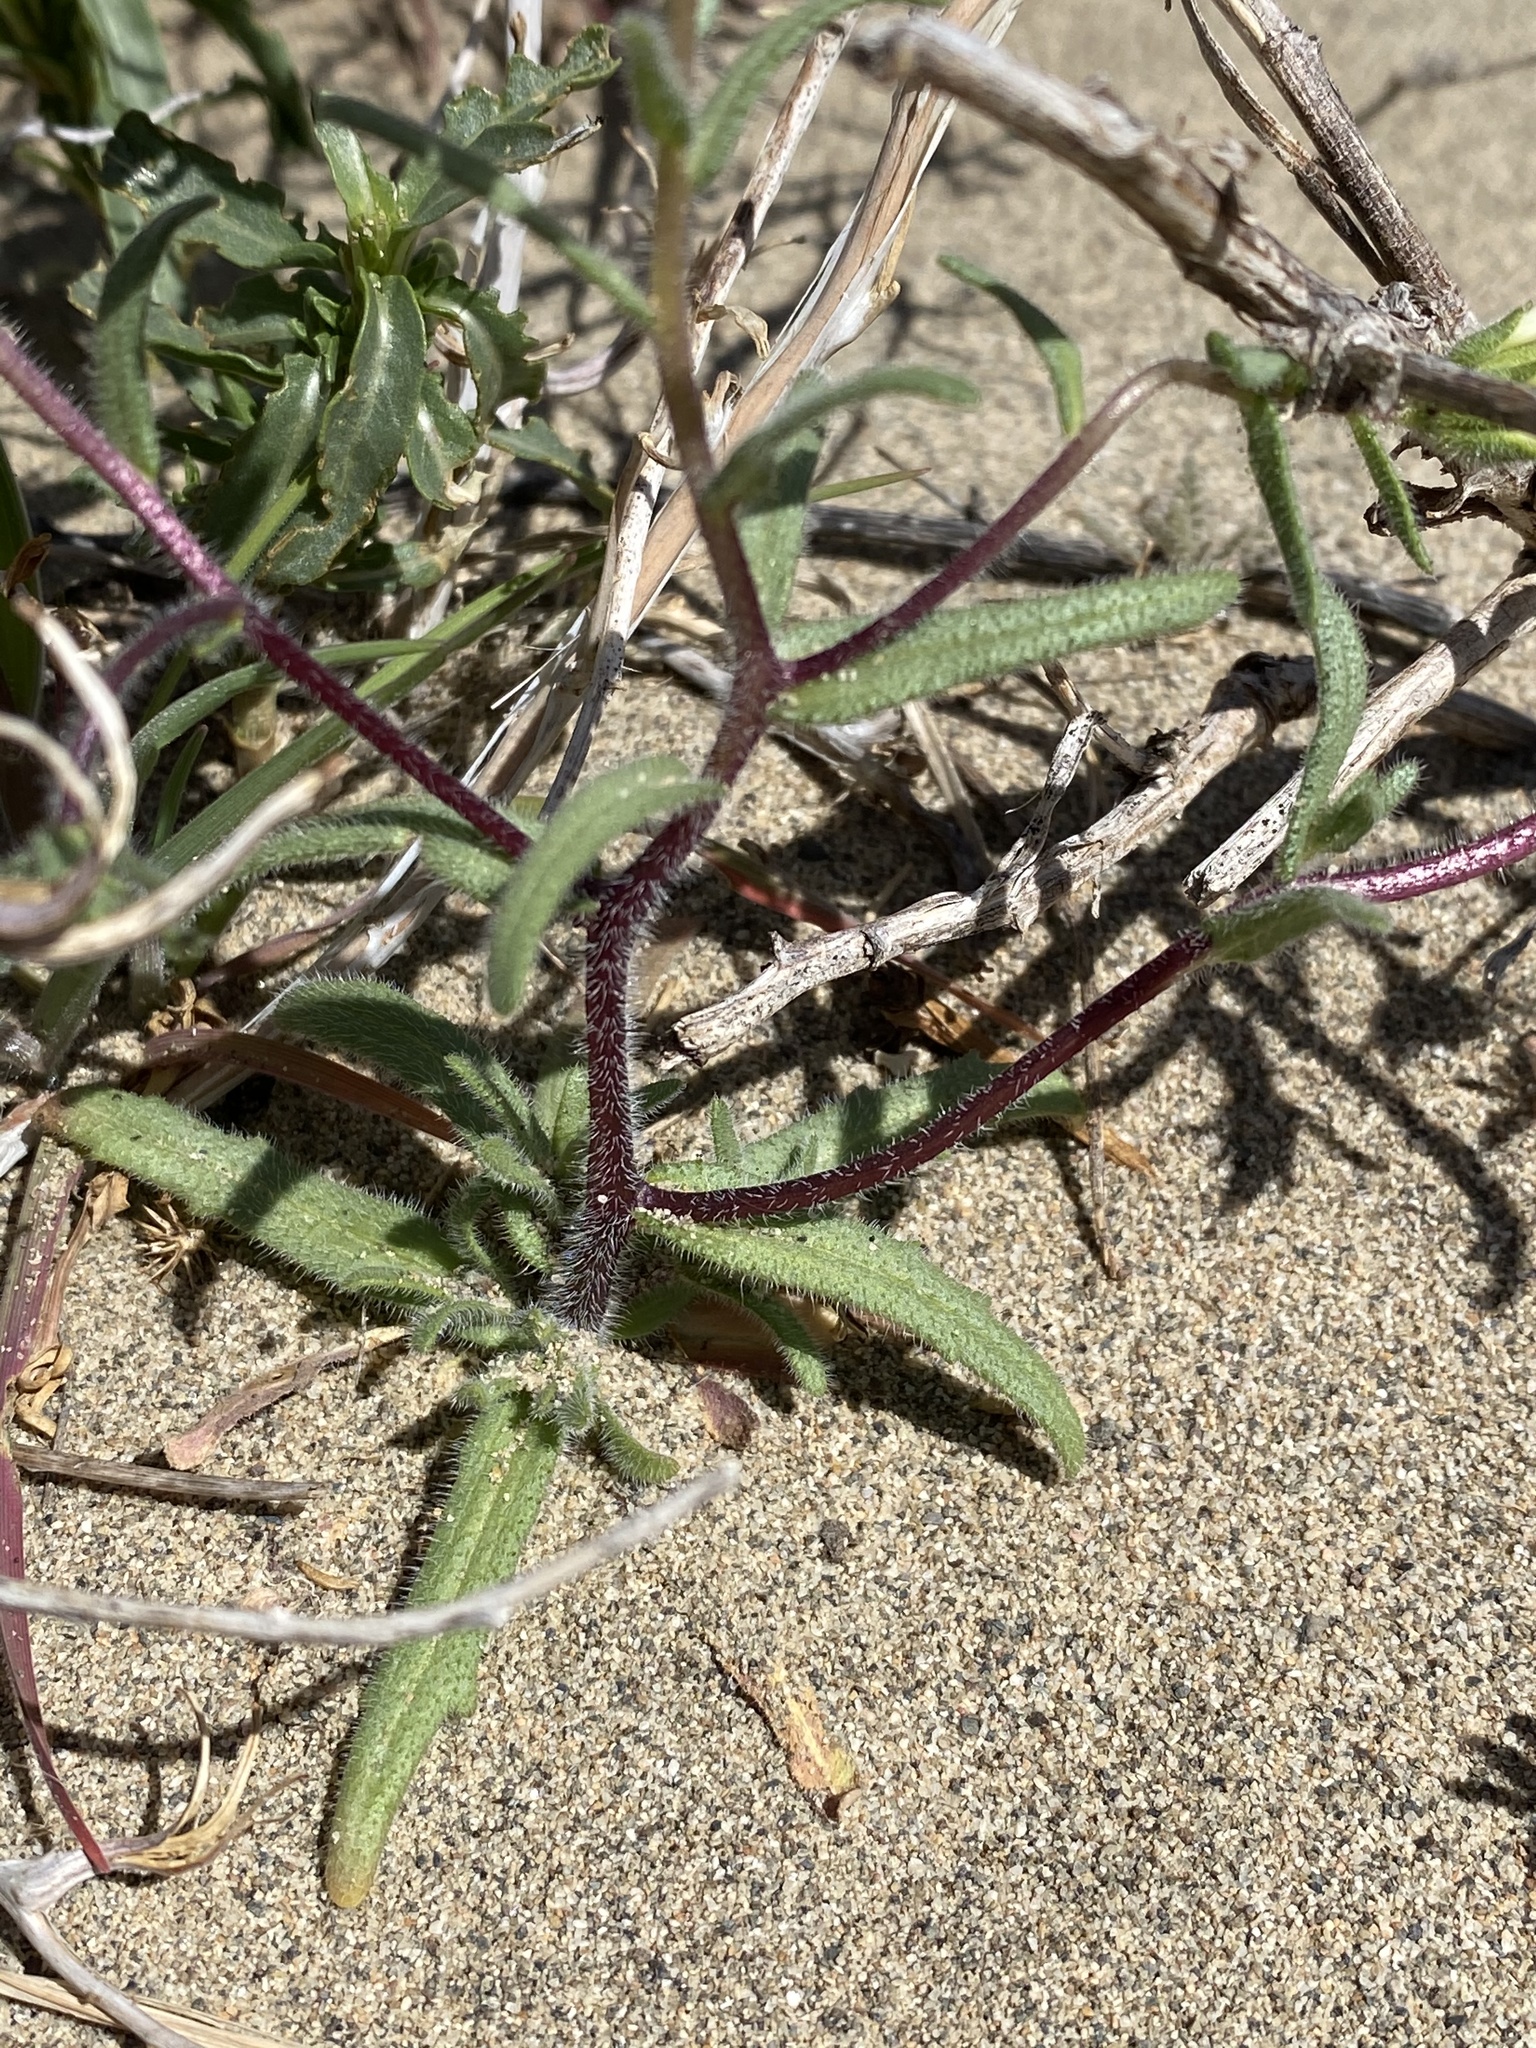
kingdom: Plantae
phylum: Tracheophyta
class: Magnoliopsida
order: Asterales
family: Asteraceae
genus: Layia
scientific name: Layia glandulosa
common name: White layia
